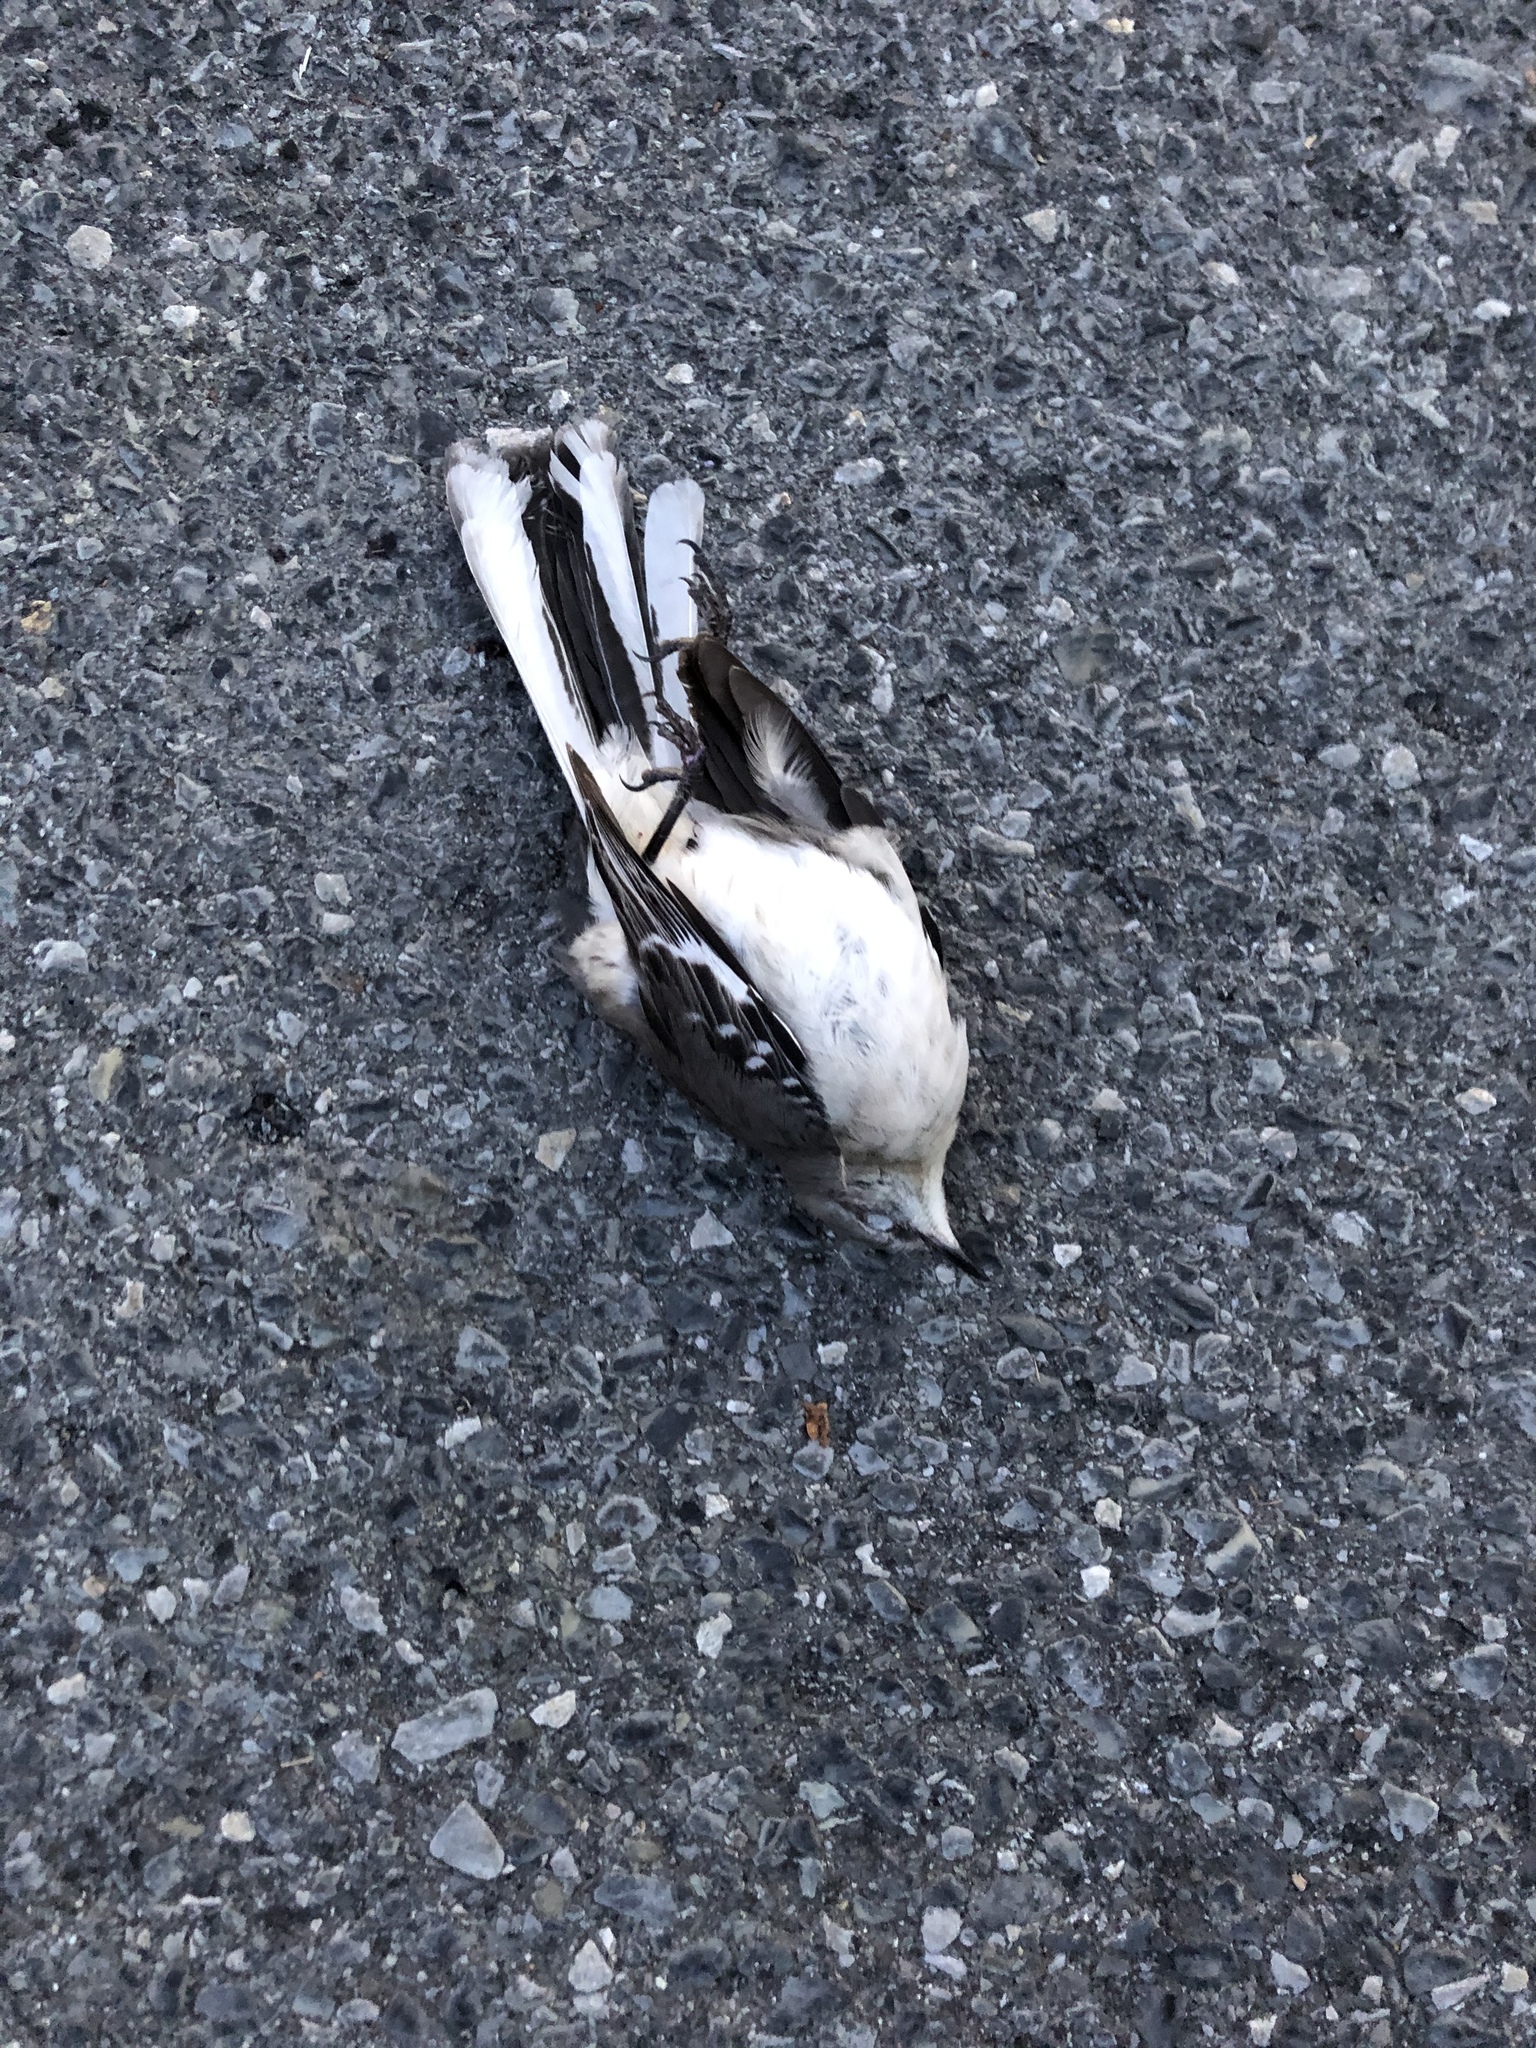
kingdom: Animalia
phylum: Chordata
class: Aves
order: Passeriformes
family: Mimidae
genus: Mimus
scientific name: Mimus polyglottos
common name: Northern mockingbird
